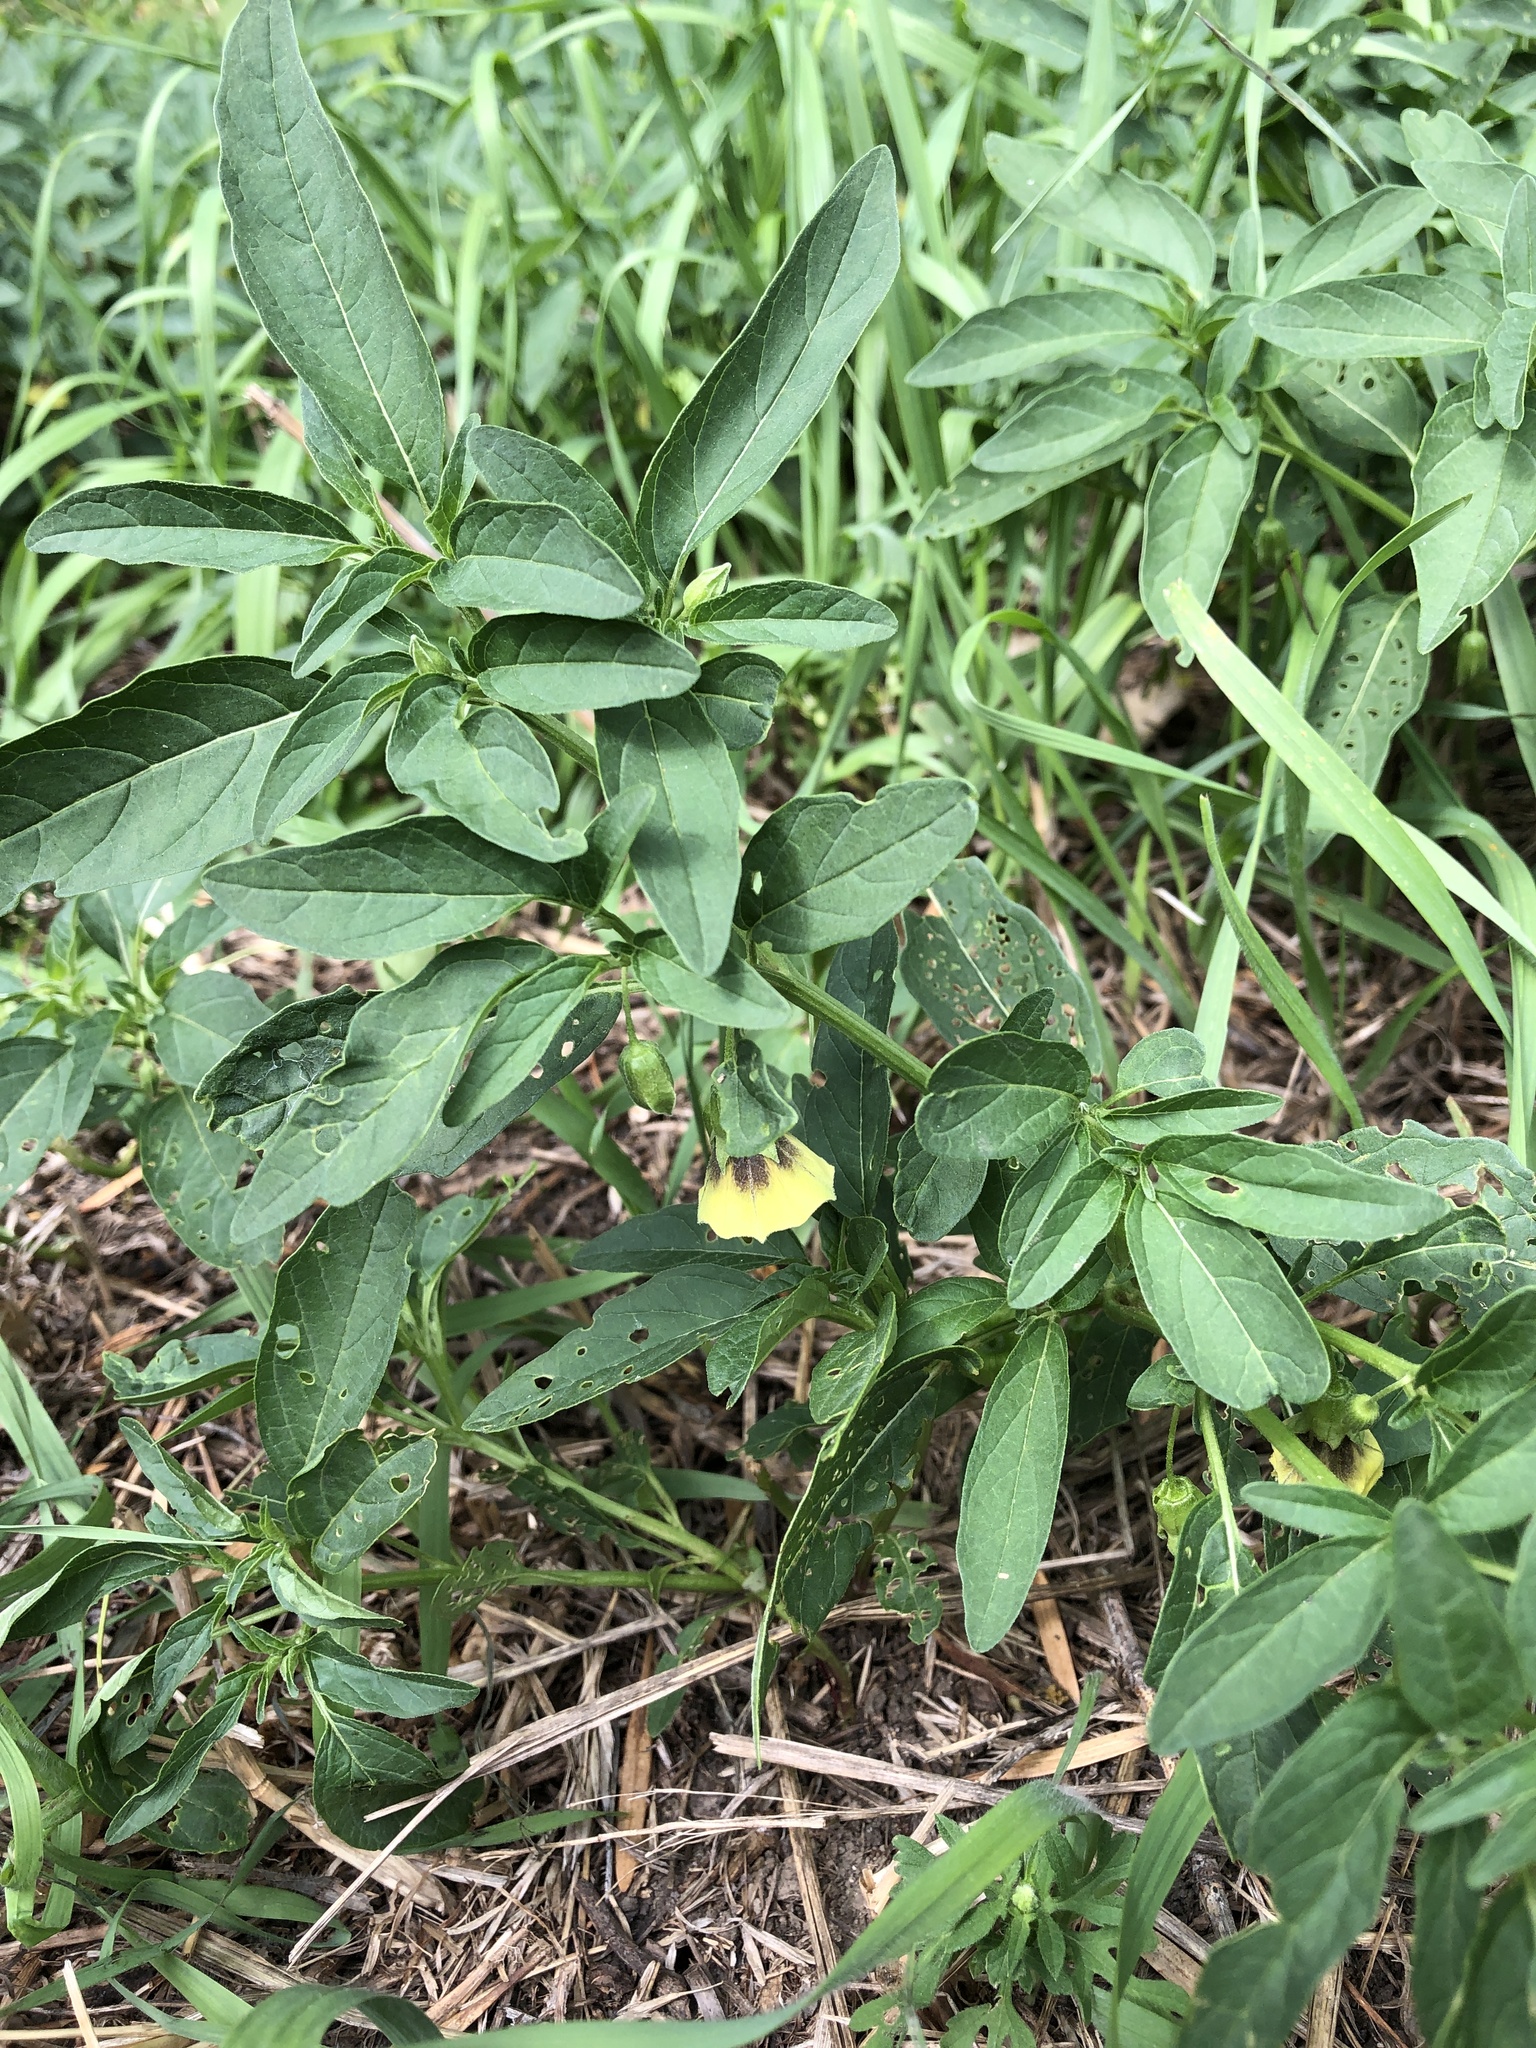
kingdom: Plantae
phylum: Tracheophyta
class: Magnoliopsida
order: Solanales
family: Solanaceae
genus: Physalis
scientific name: Physalis longifolia
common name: Common ground-cherry
